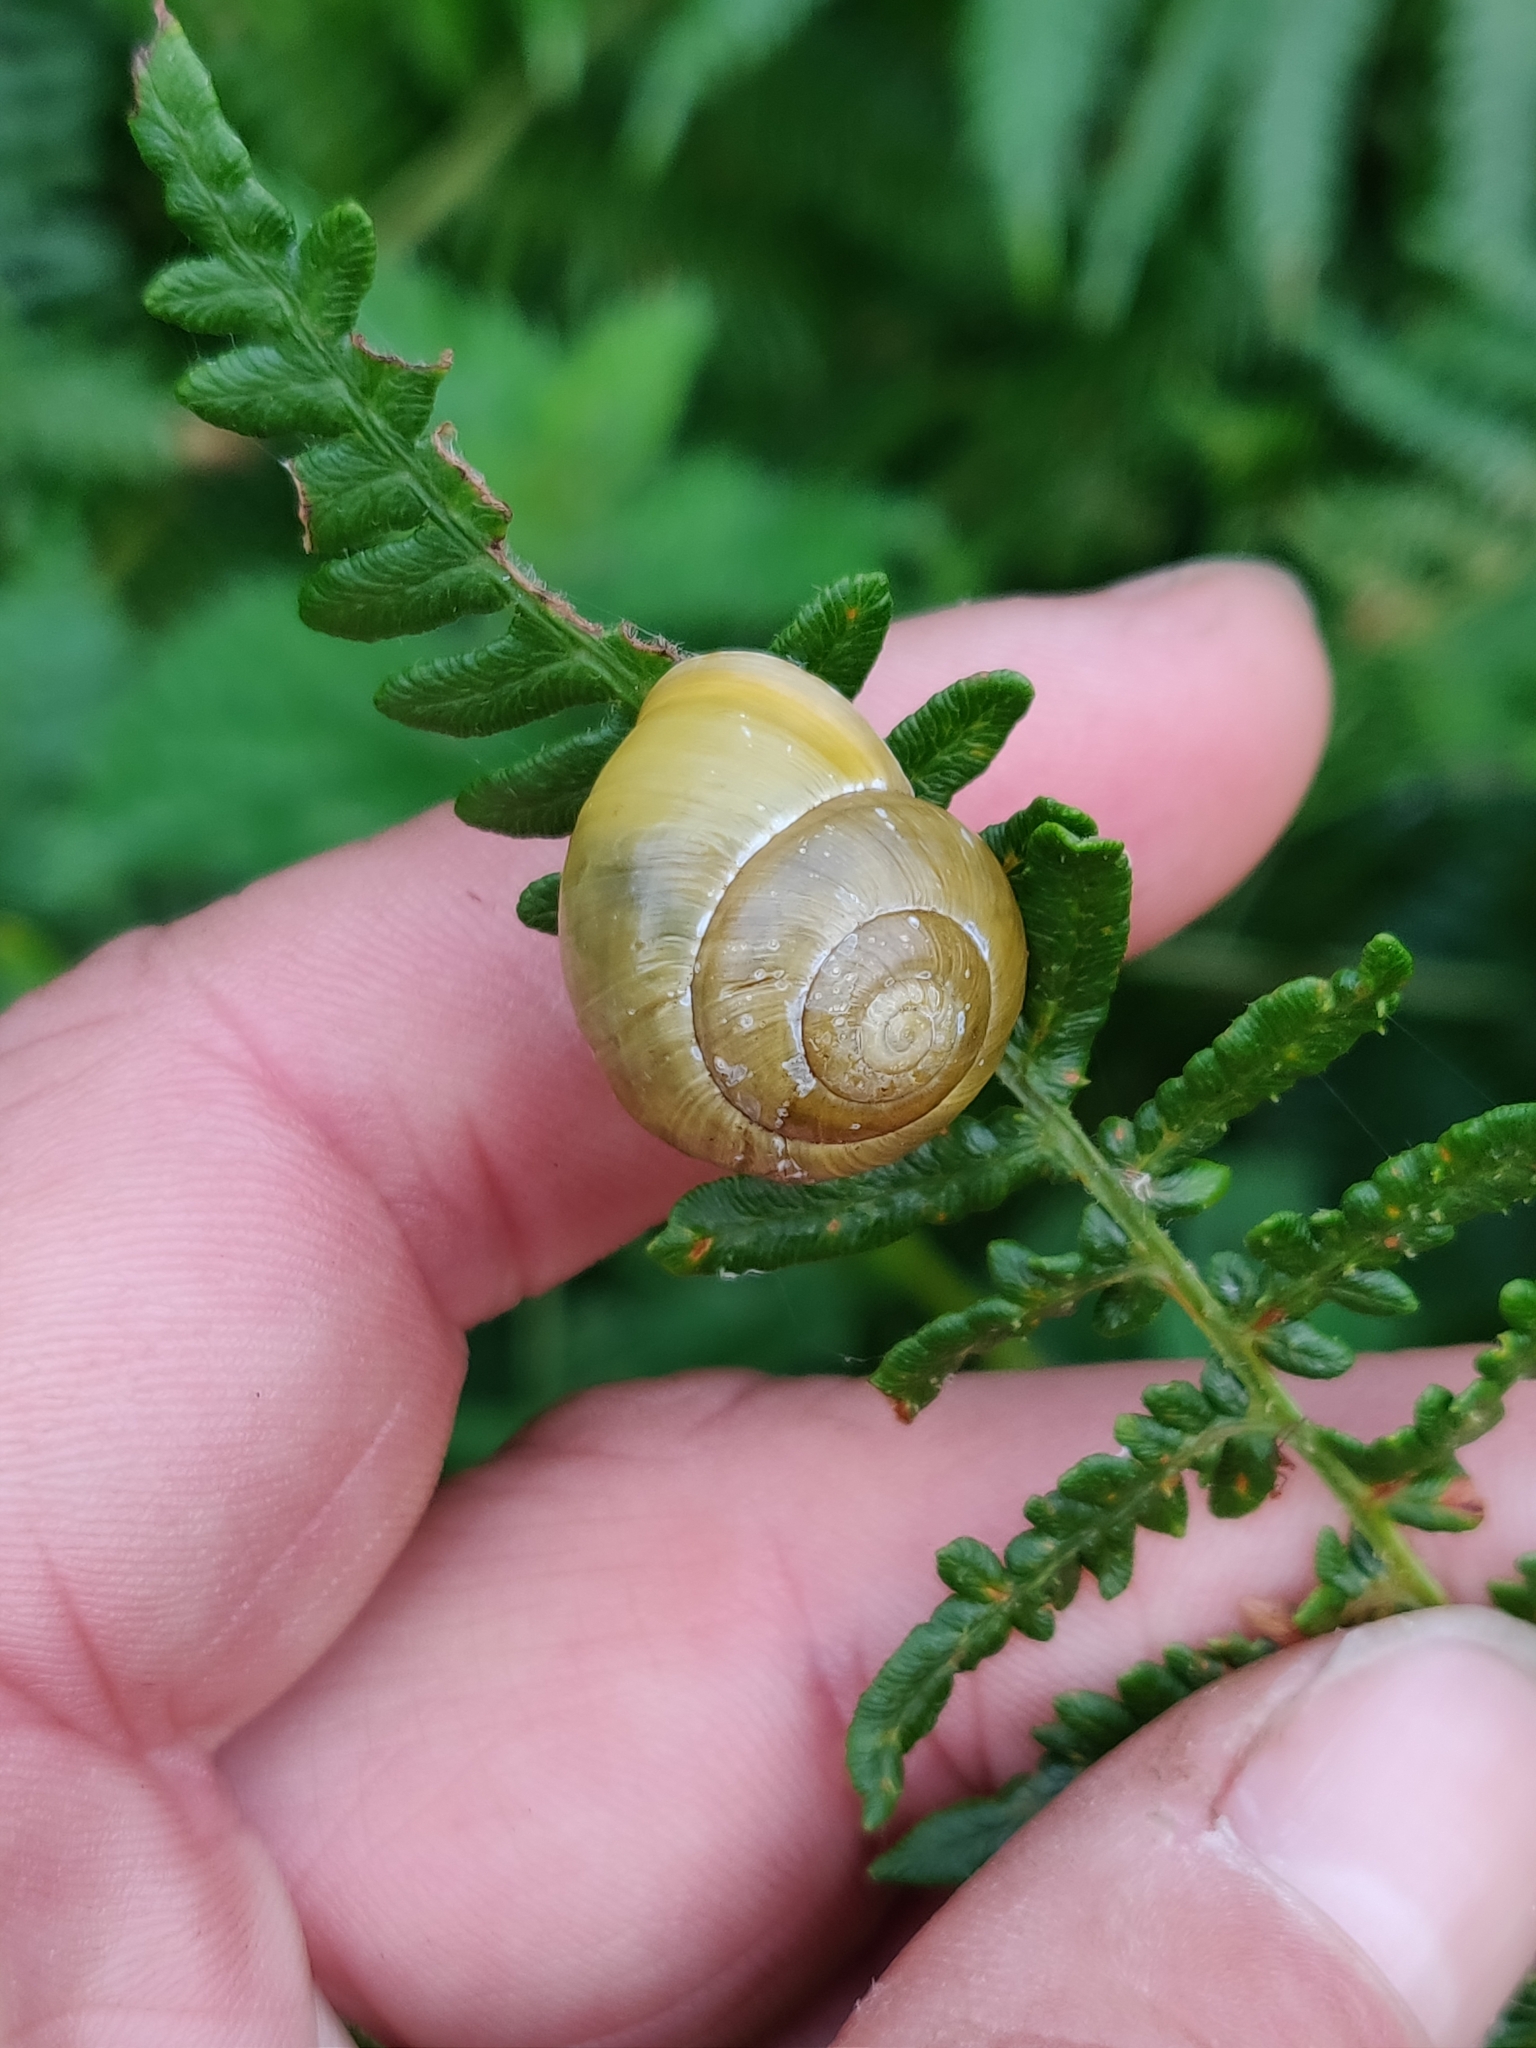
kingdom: Animalia
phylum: Mollusca
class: Gastropoda
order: Stylommatophora
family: Helicidae
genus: Cepaea
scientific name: Cepaea hortensis
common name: White-lip gardensnail
